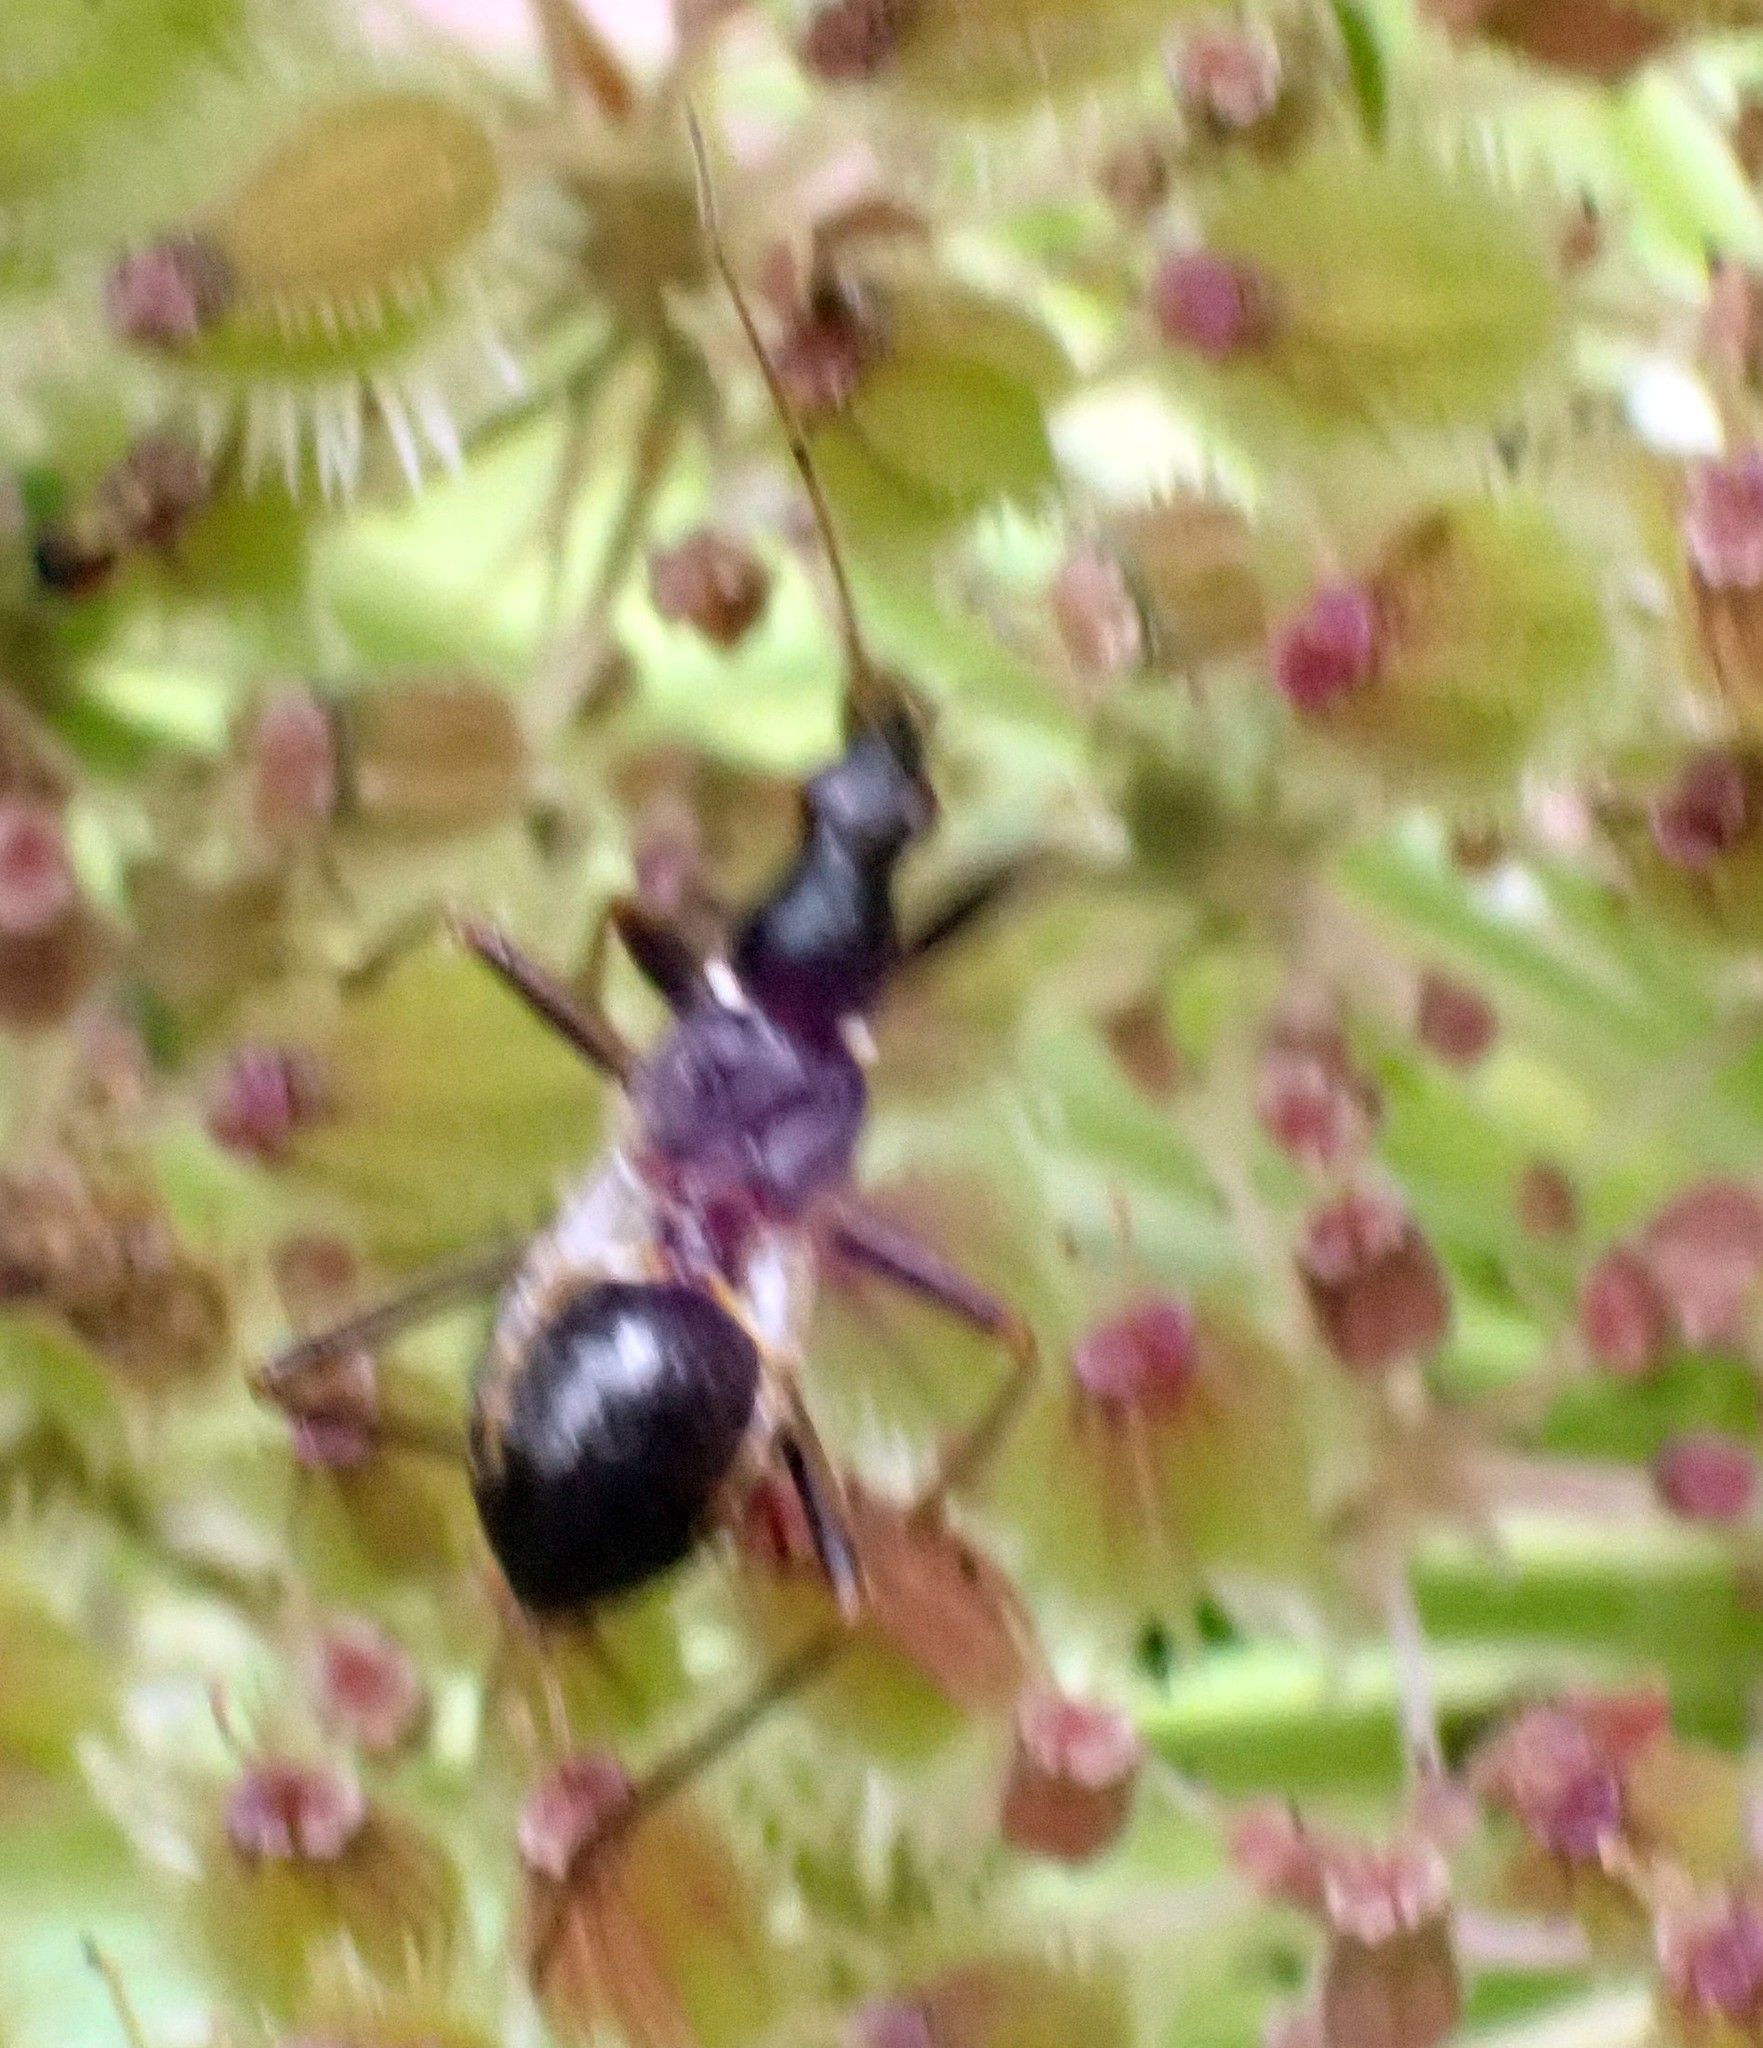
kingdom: Animalia
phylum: Arthropoda
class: Insecta
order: Hemiptera
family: Nabidae
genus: Himacerus
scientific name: Himacerus mirmicoides
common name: Ant damsel bug
